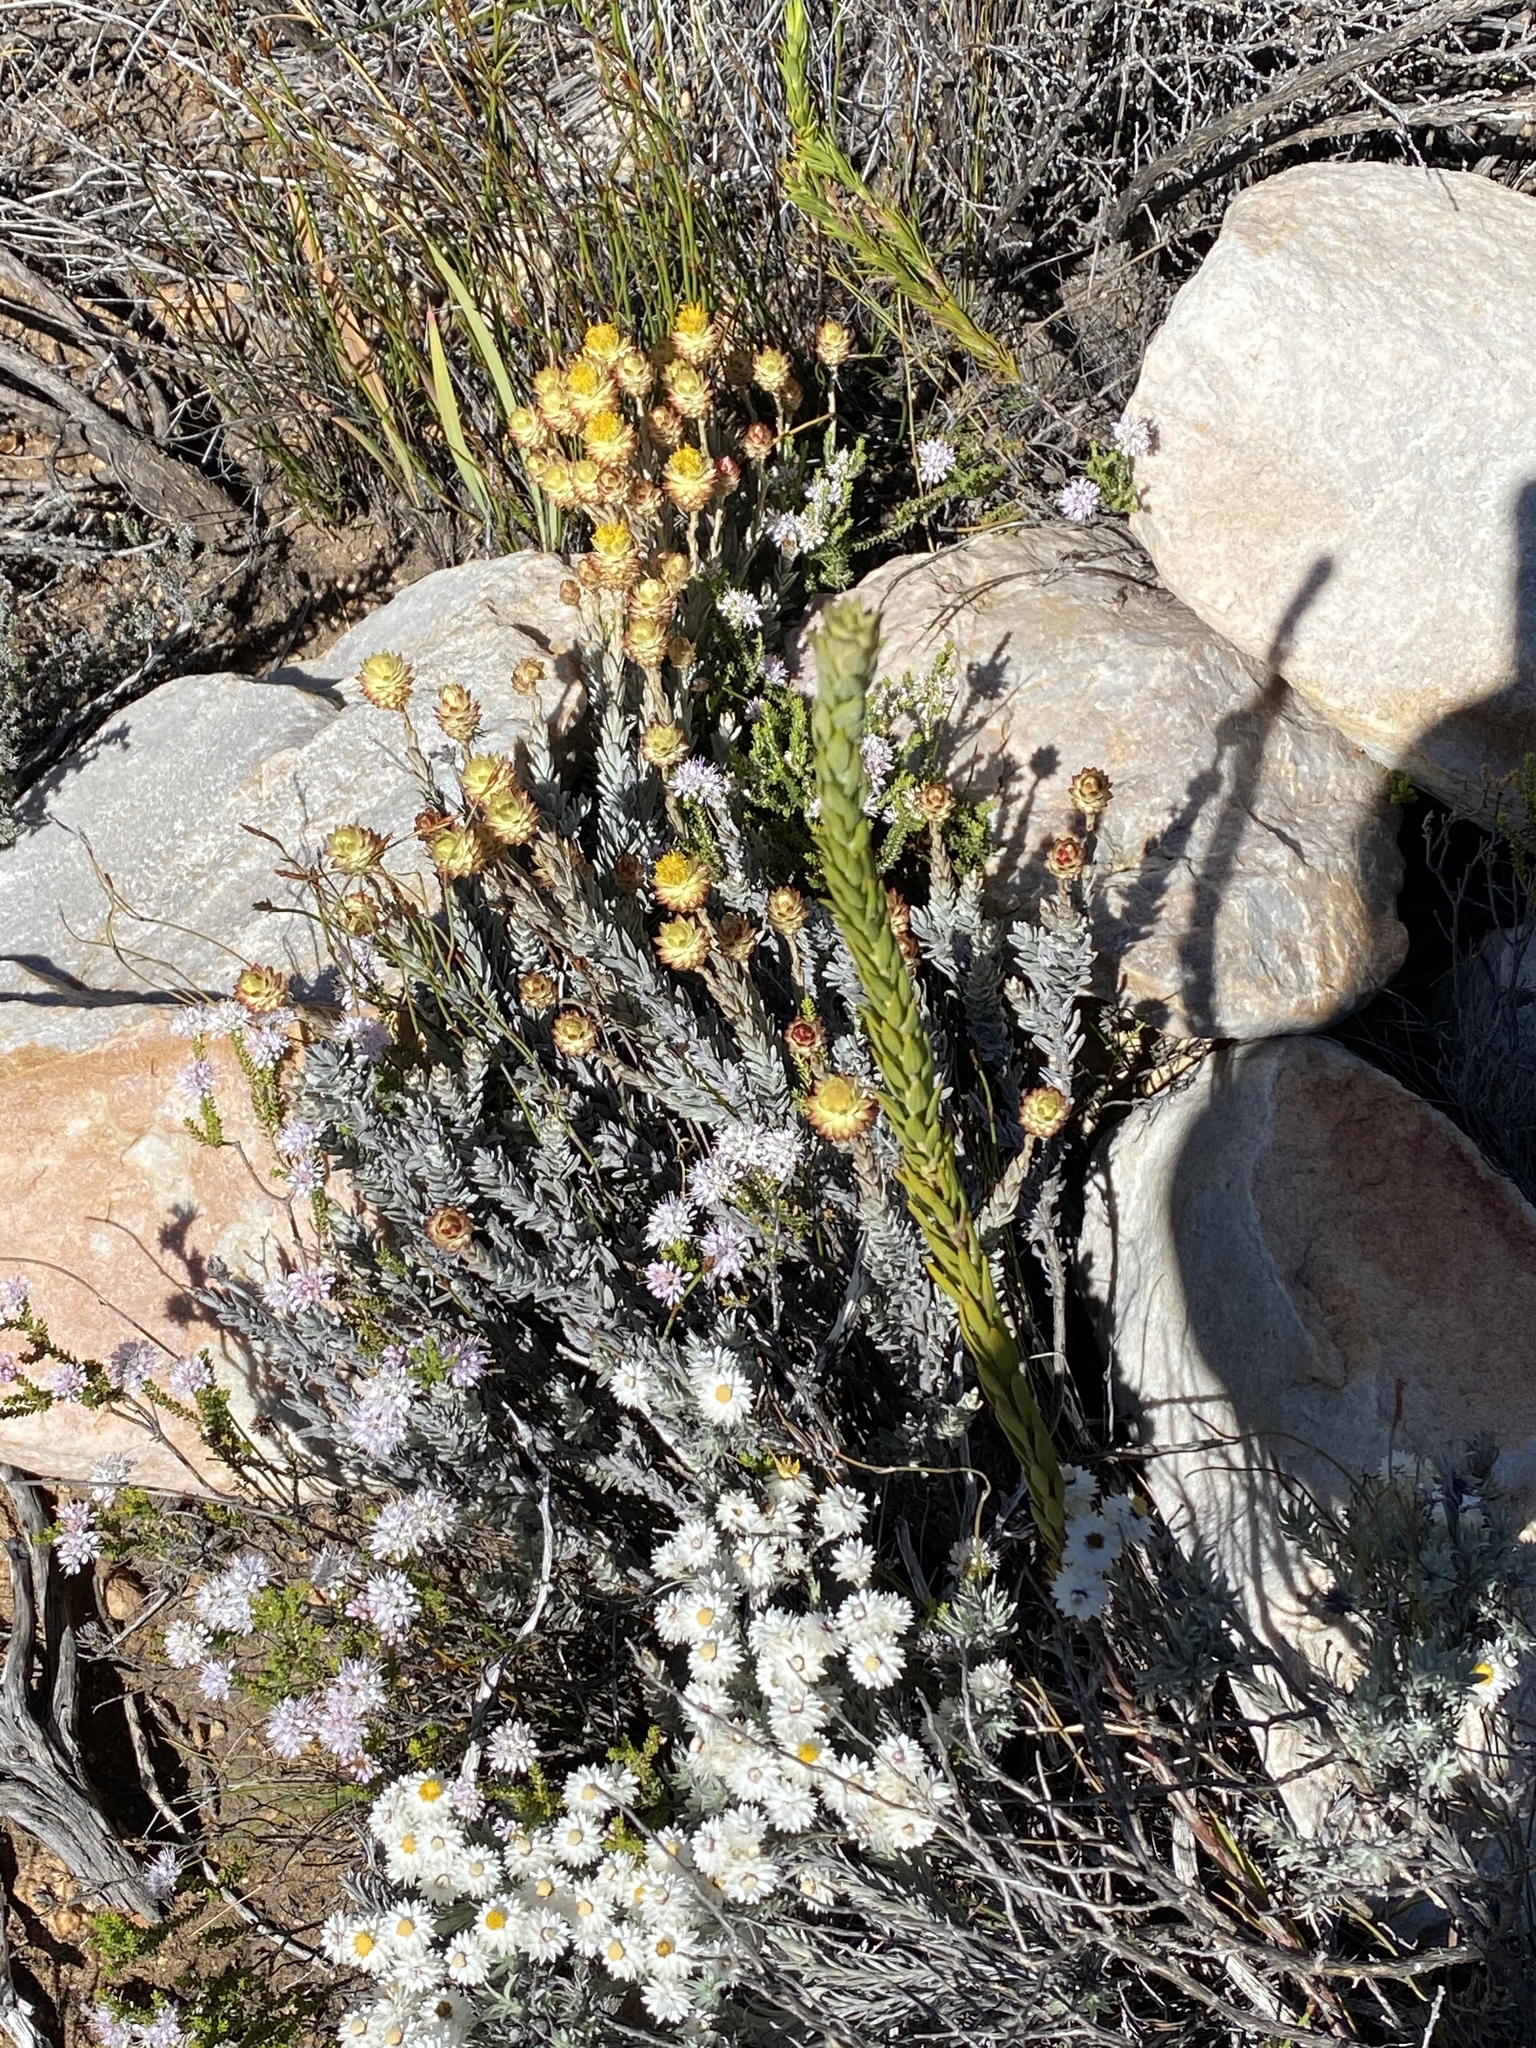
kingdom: Plantae
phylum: Tracheophyta
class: Magnoliopsida
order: Asterales
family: Asteraceae
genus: Syncarpha
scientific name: Syncarpha virgata
